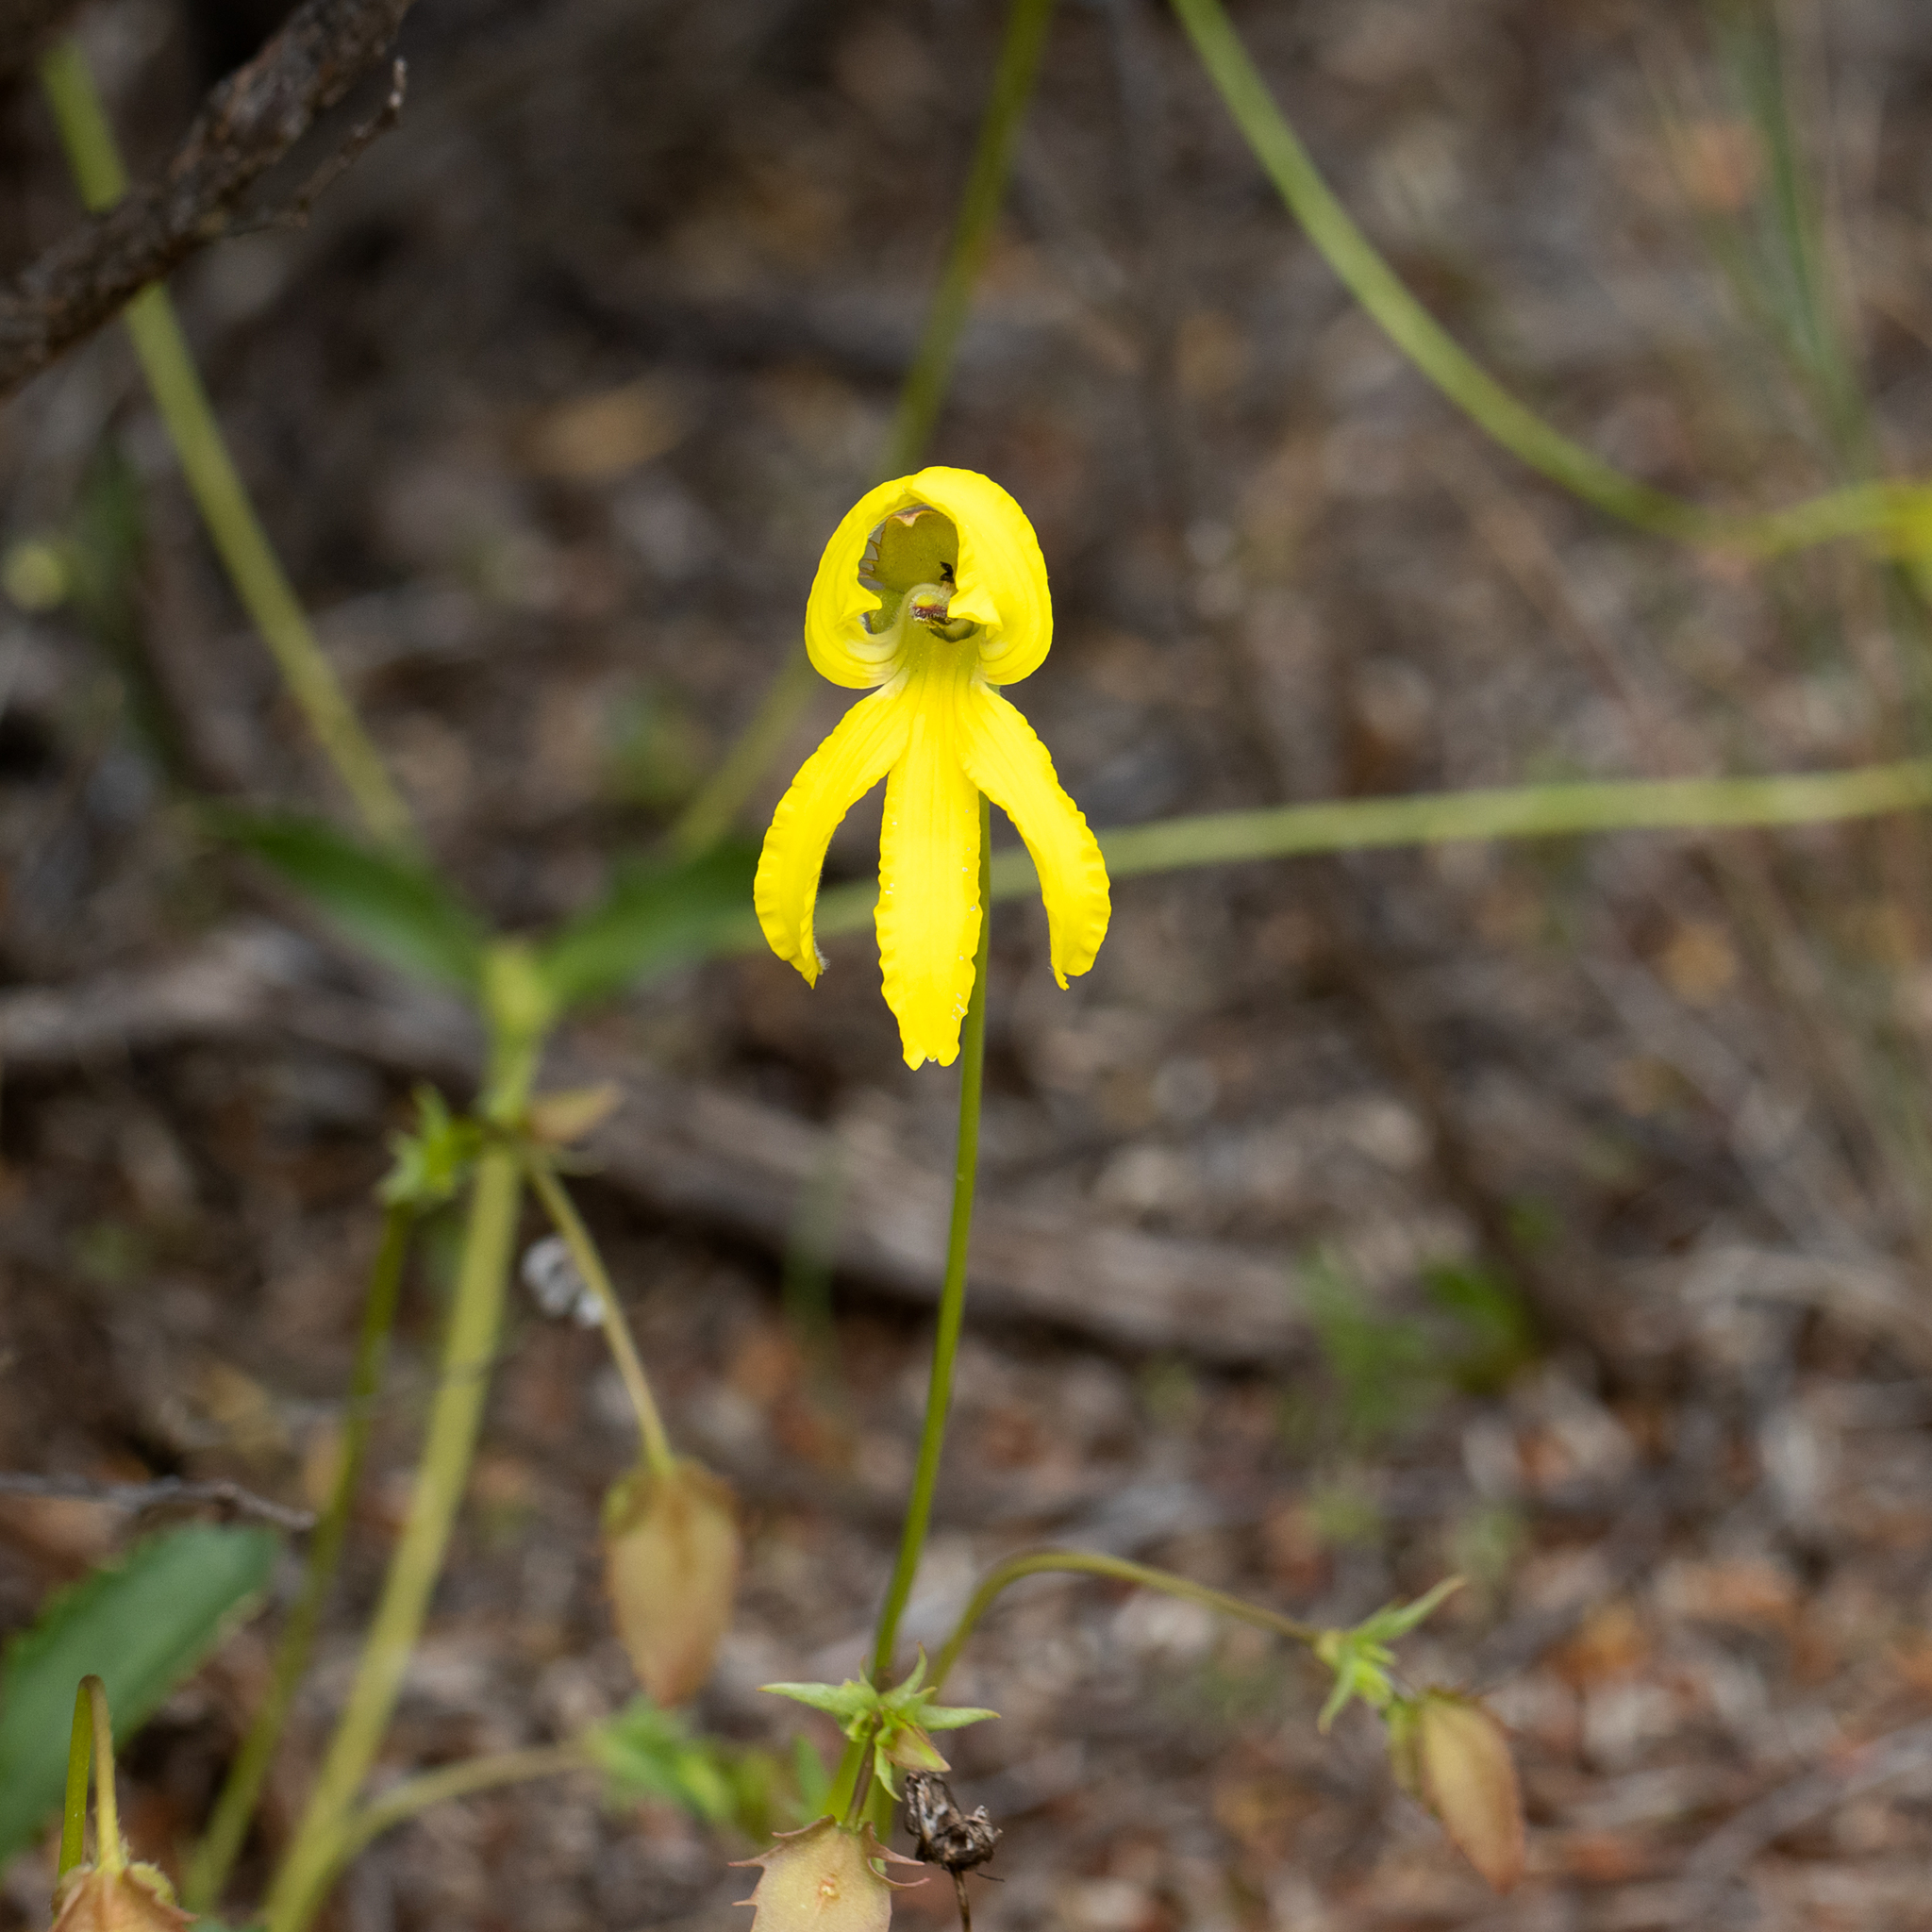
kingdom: Plantae
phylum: Tracheophyta
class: Magnoliopsida
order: Asterales
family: Goodeniaceae
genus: Goodenia
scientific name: Goodenia arguta
